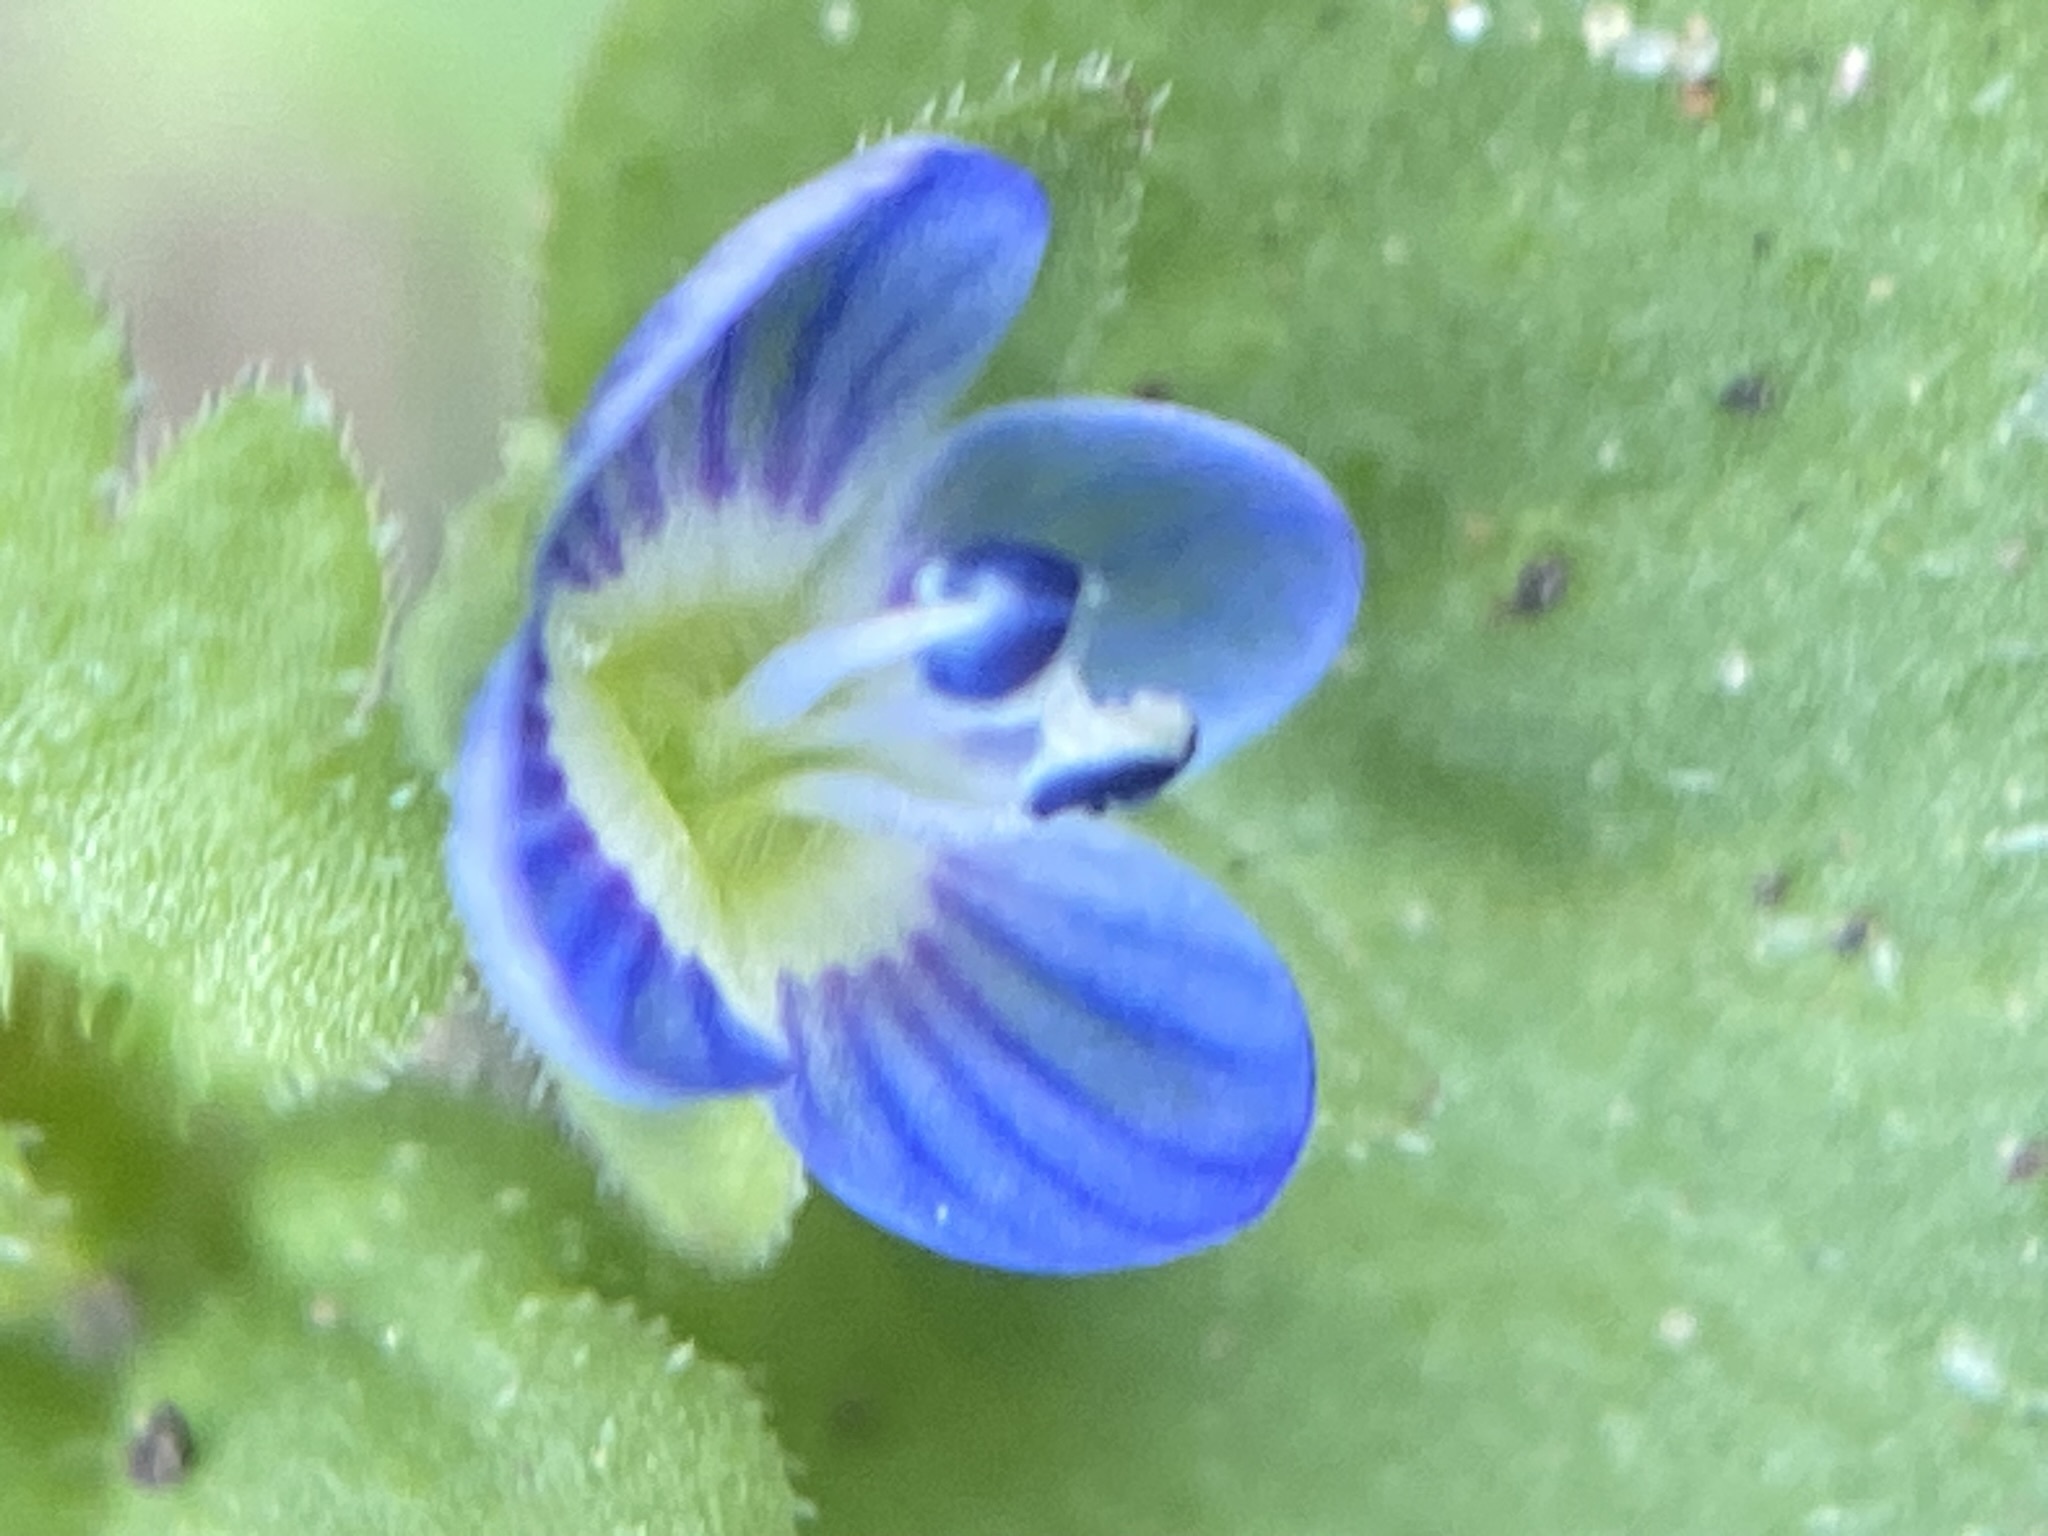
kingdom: Plantae
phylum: Tracheophyta
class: Magnoliopsida
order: Lamiales
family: Plantaginaceae
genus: Veronica
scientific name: Veronica persica
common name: Common field-speedwell
